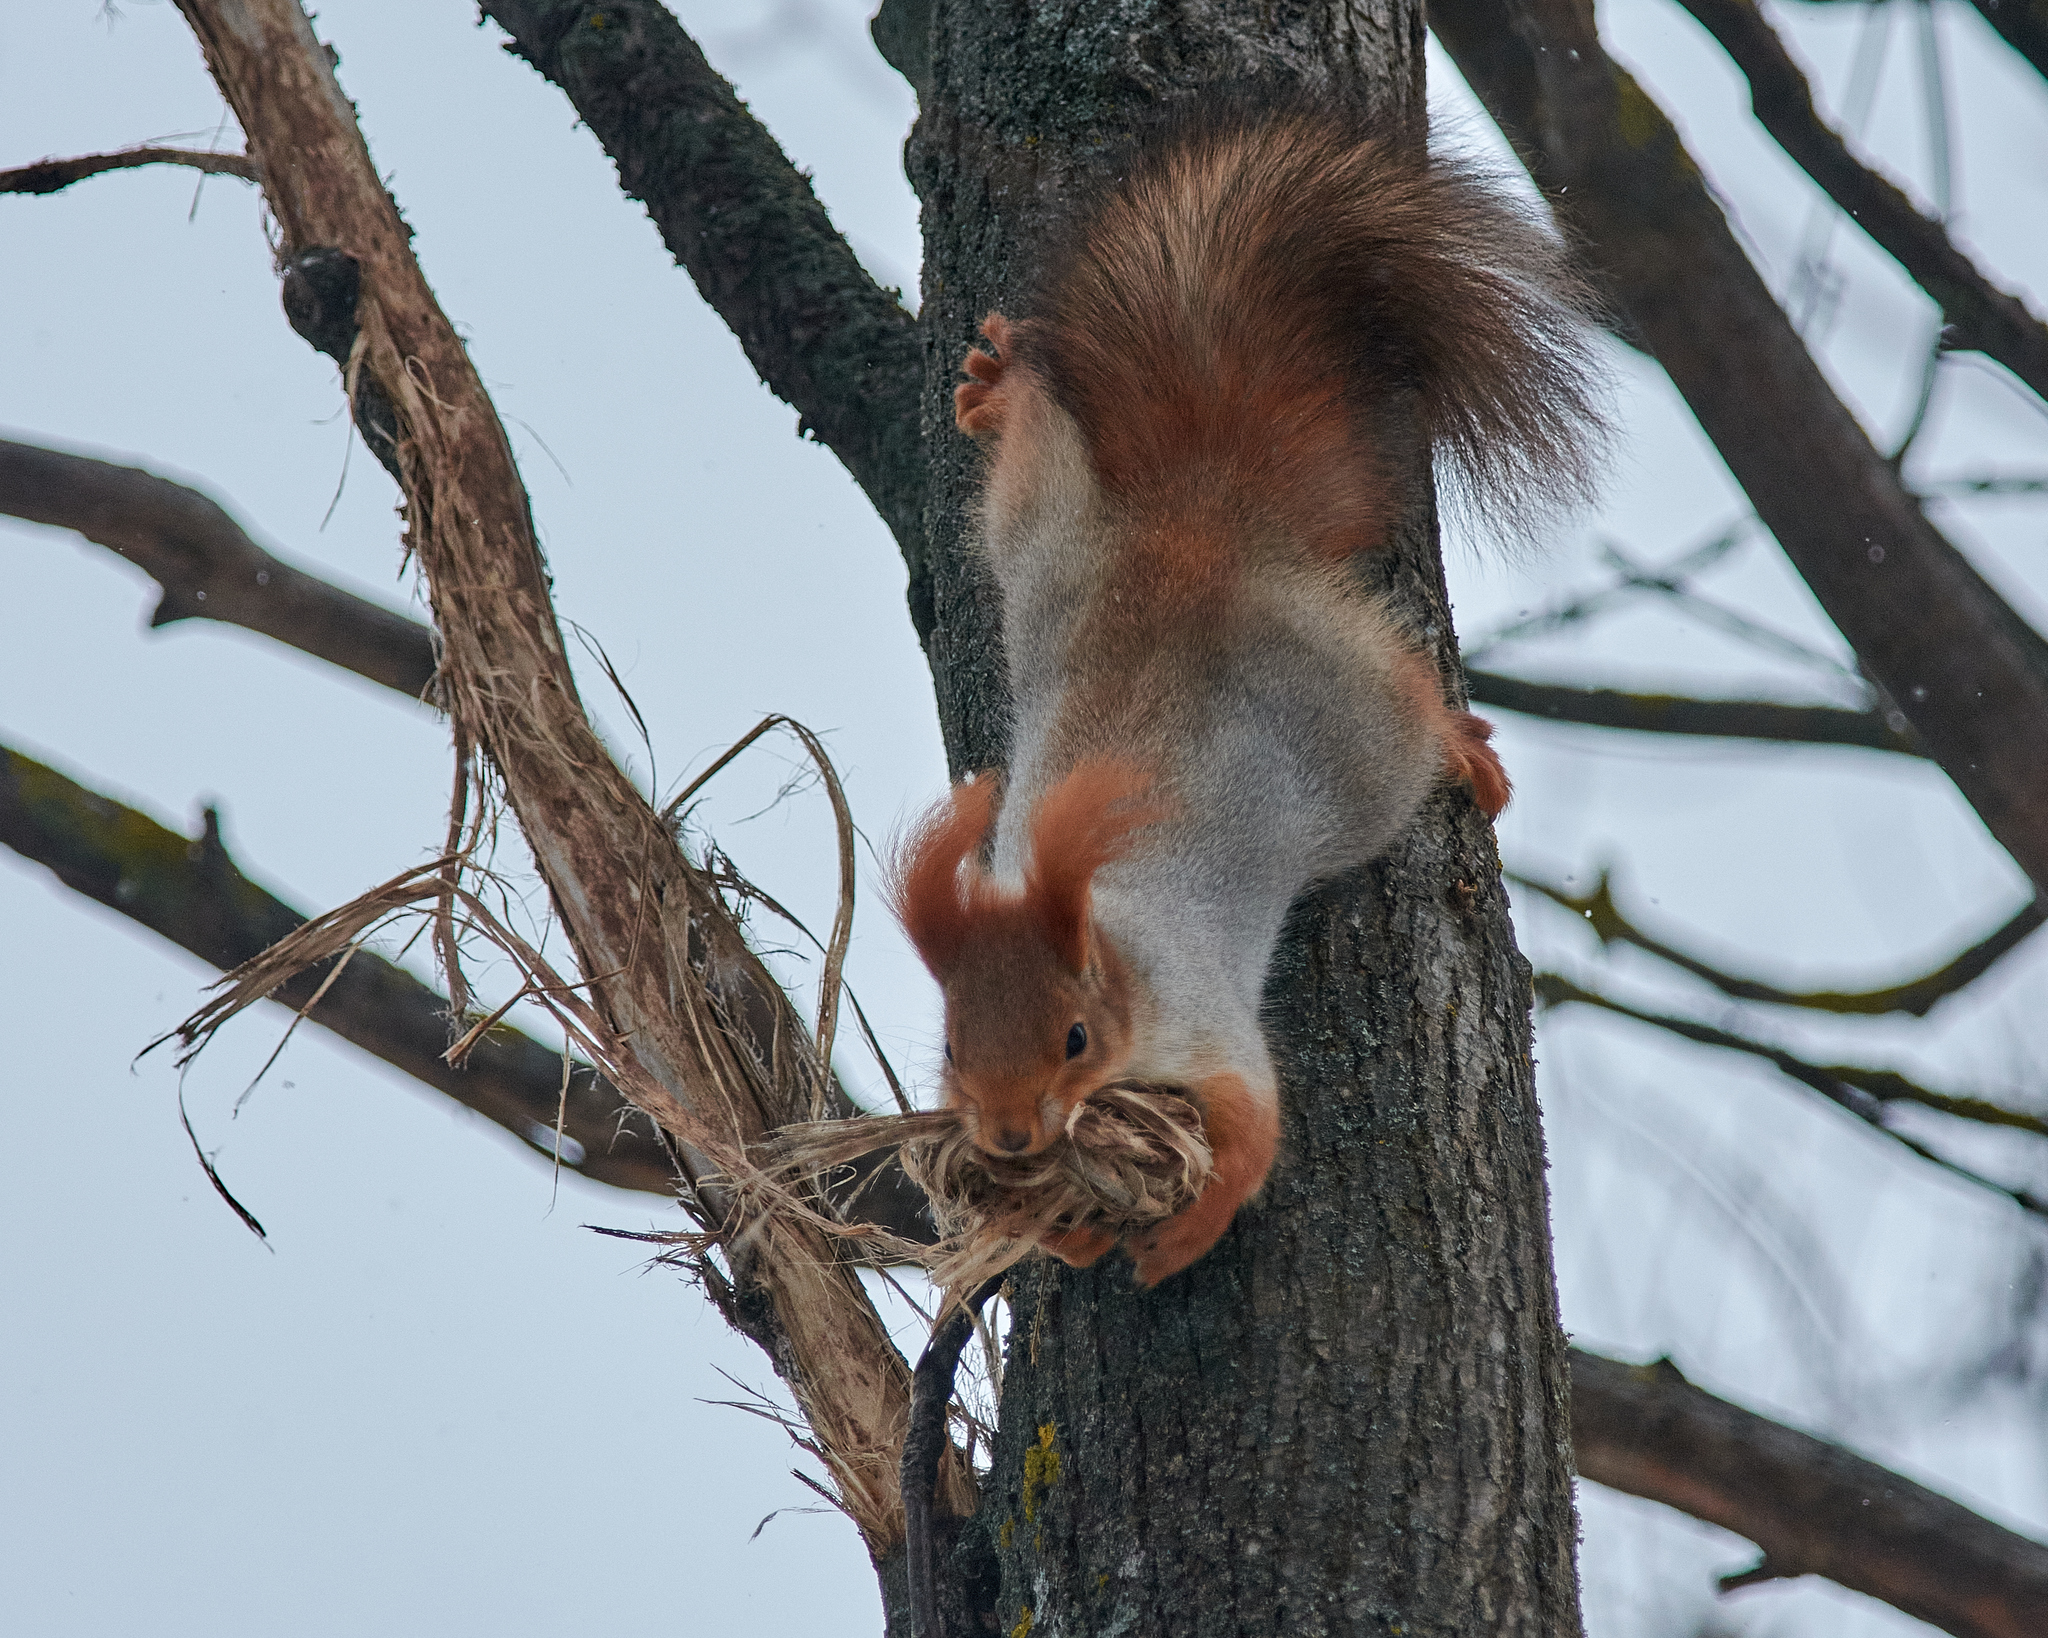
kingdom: Animalia
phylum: Chordata
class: Mammalia
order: Rodentia
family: Sciuridae
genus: Sciurus
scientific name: Sciurus vulgaris
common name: Eurasian red squirrel
